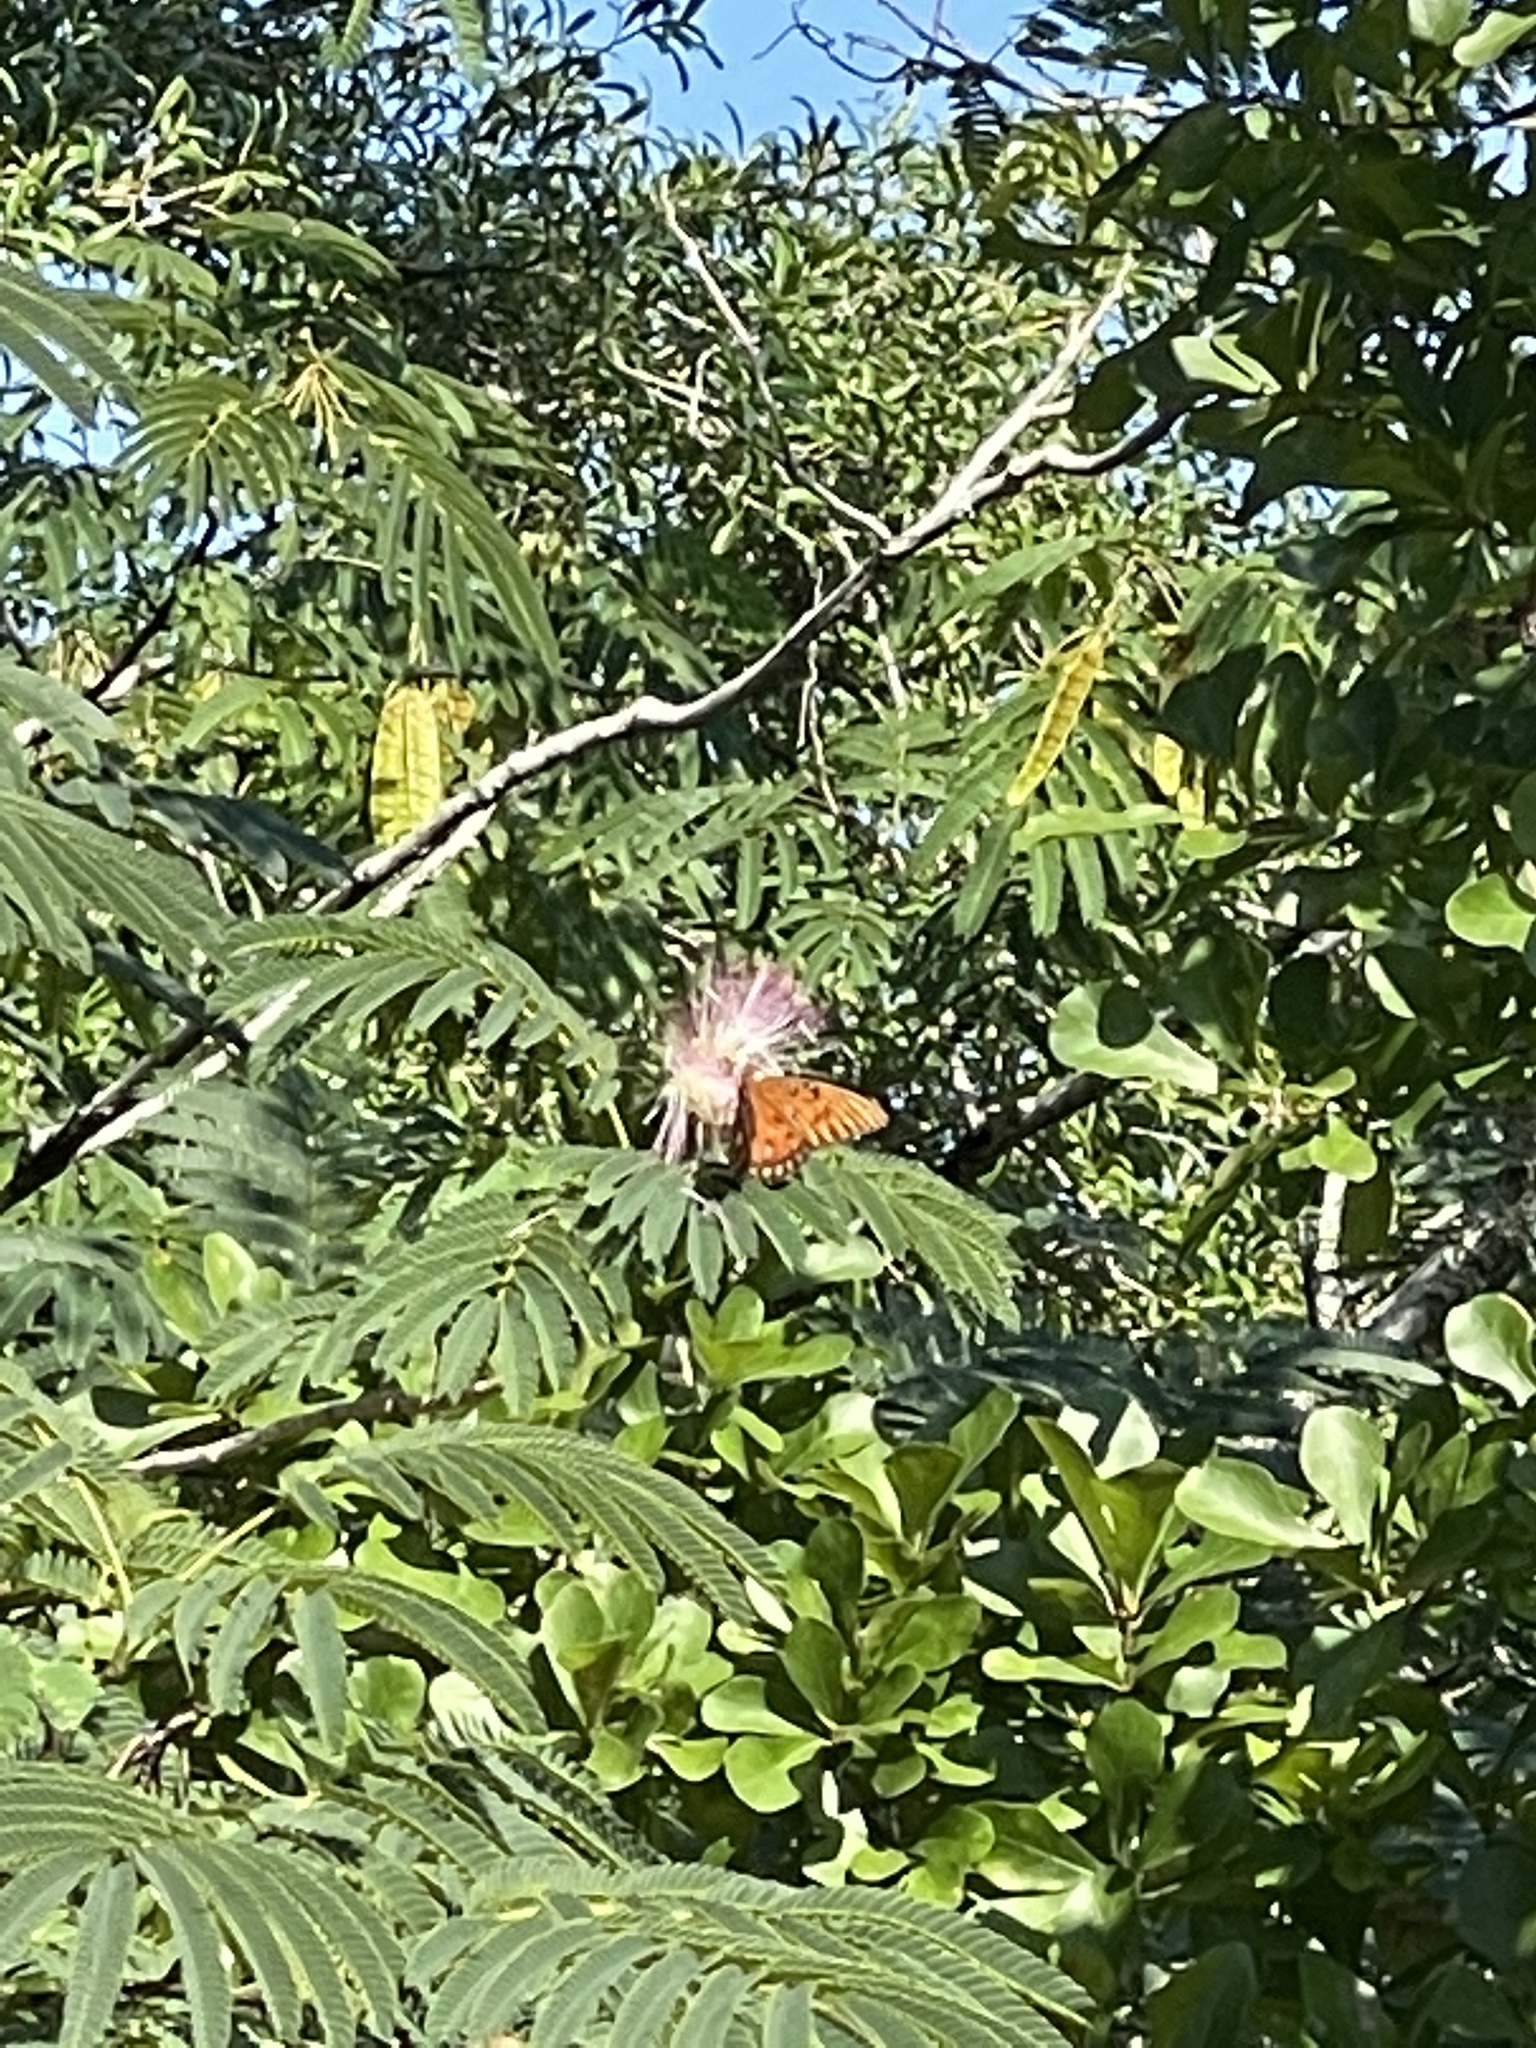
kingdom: Animalia
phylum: Arthropoda
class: Insecta
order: Lepidoptera
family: Nymphalidae
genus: Dione
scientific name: Dione vanillae
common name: Gulf fritillary
